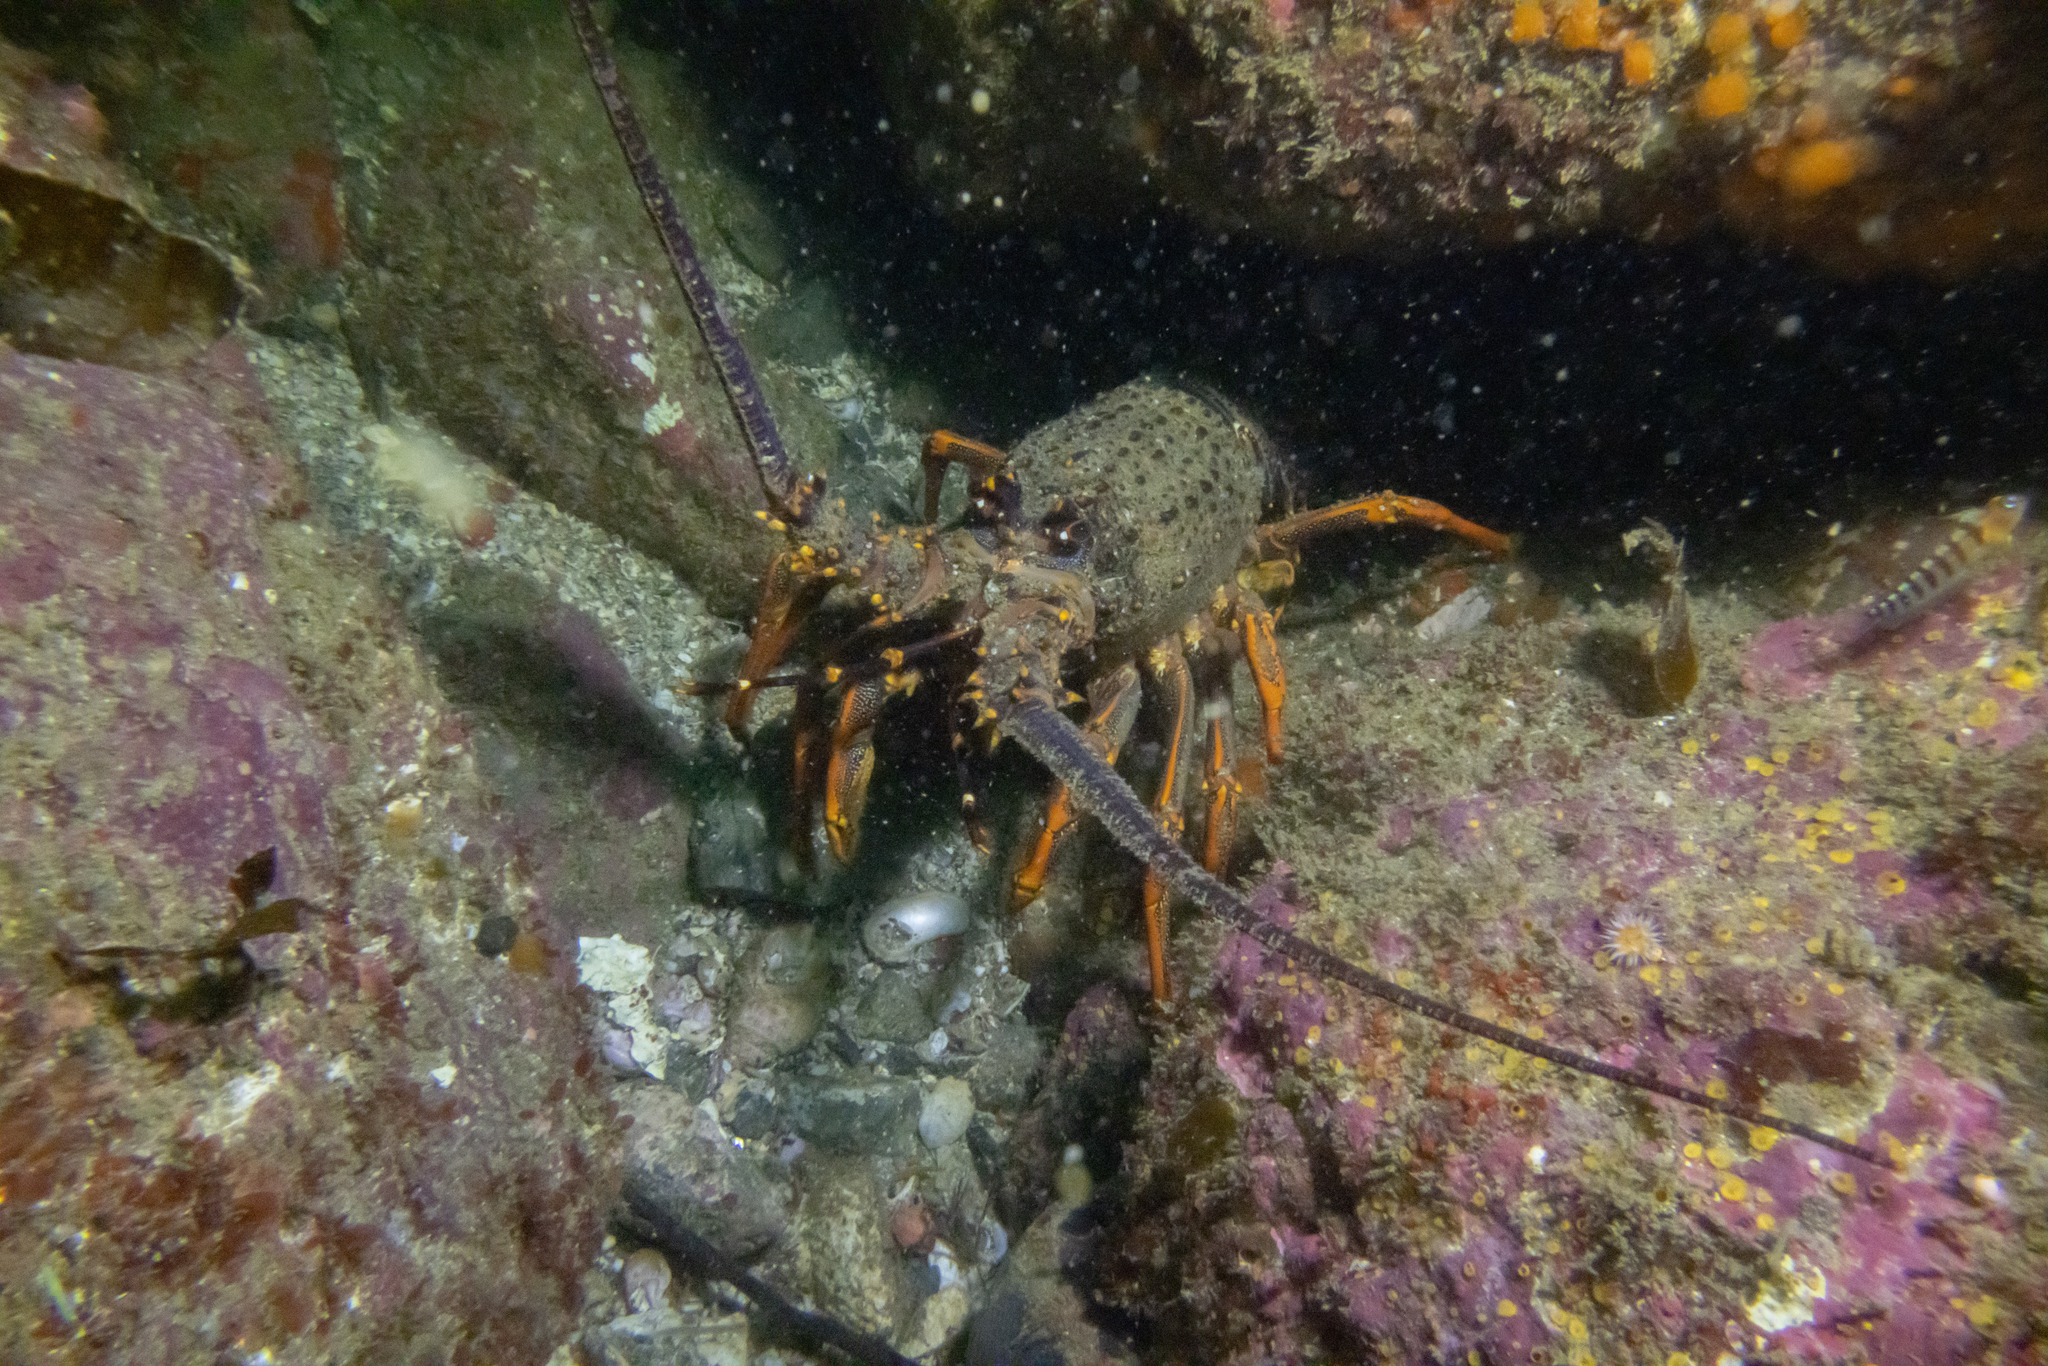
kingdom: Animalia
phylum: Arthropoda
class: Malacostraca
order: Decapoda
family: Palinuridae
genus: Jasus
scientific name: Jasus edwardsii
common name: Red rock lobster
